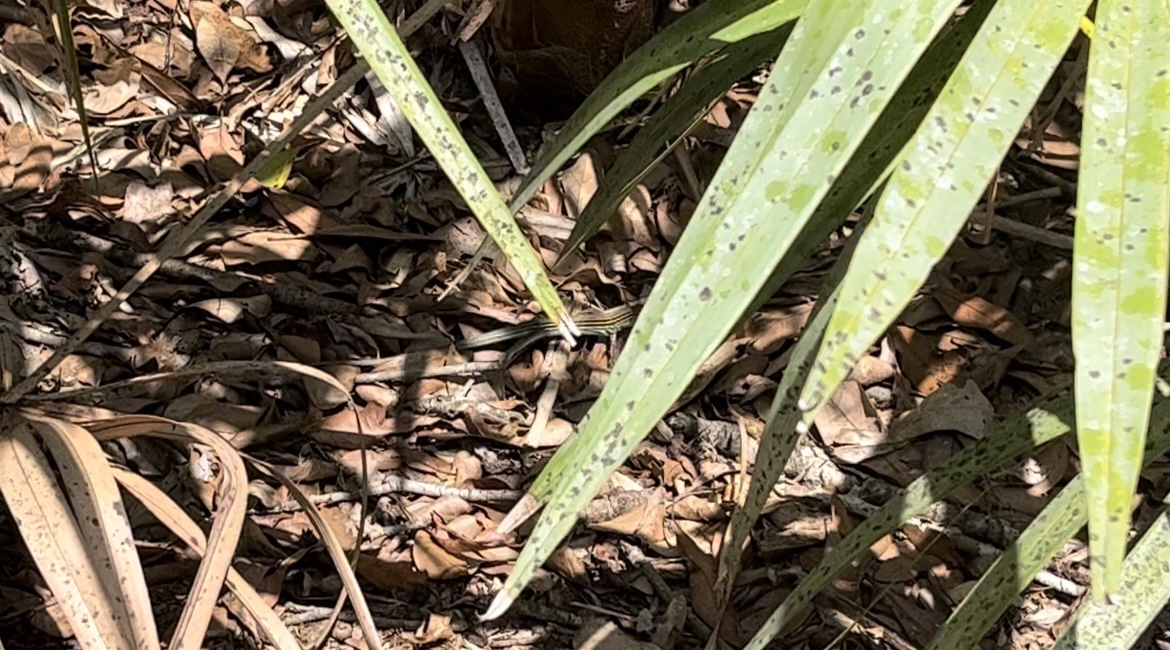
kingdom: Animalia
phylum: Chordata
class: Squamata
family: Teiidae
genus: Aspidoscelis
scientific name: Aspidoscelis sexlineatus
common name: Six-lined racerunner
